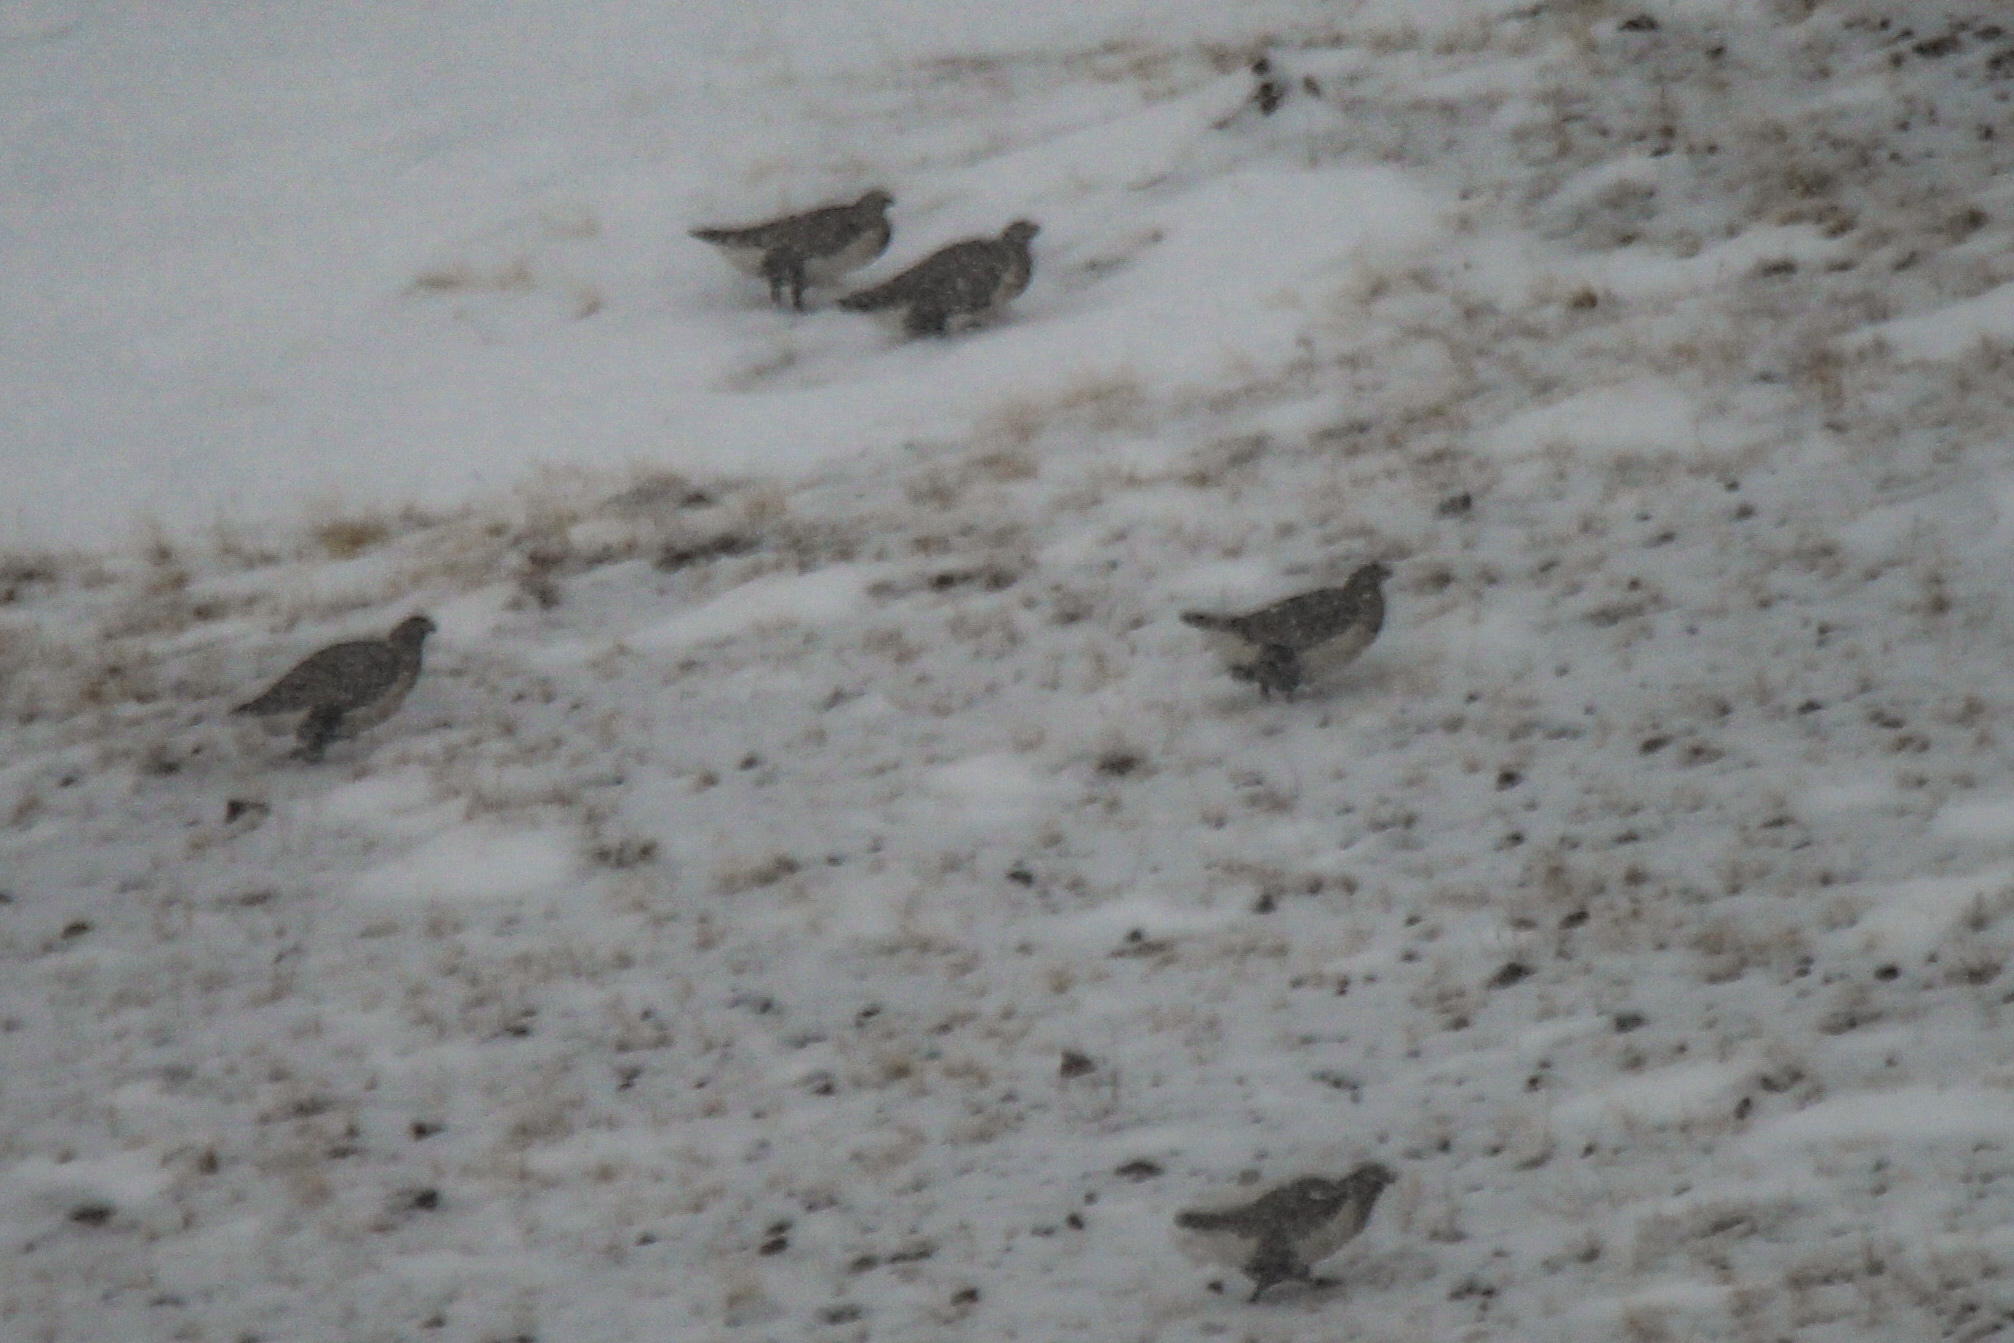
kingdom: Animalia
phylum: Chordata
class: Aves
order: Galliformes
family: Phasianidae
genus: Tetraogallus
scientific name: Tetraogallus altaicus
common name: Altai snowcock
